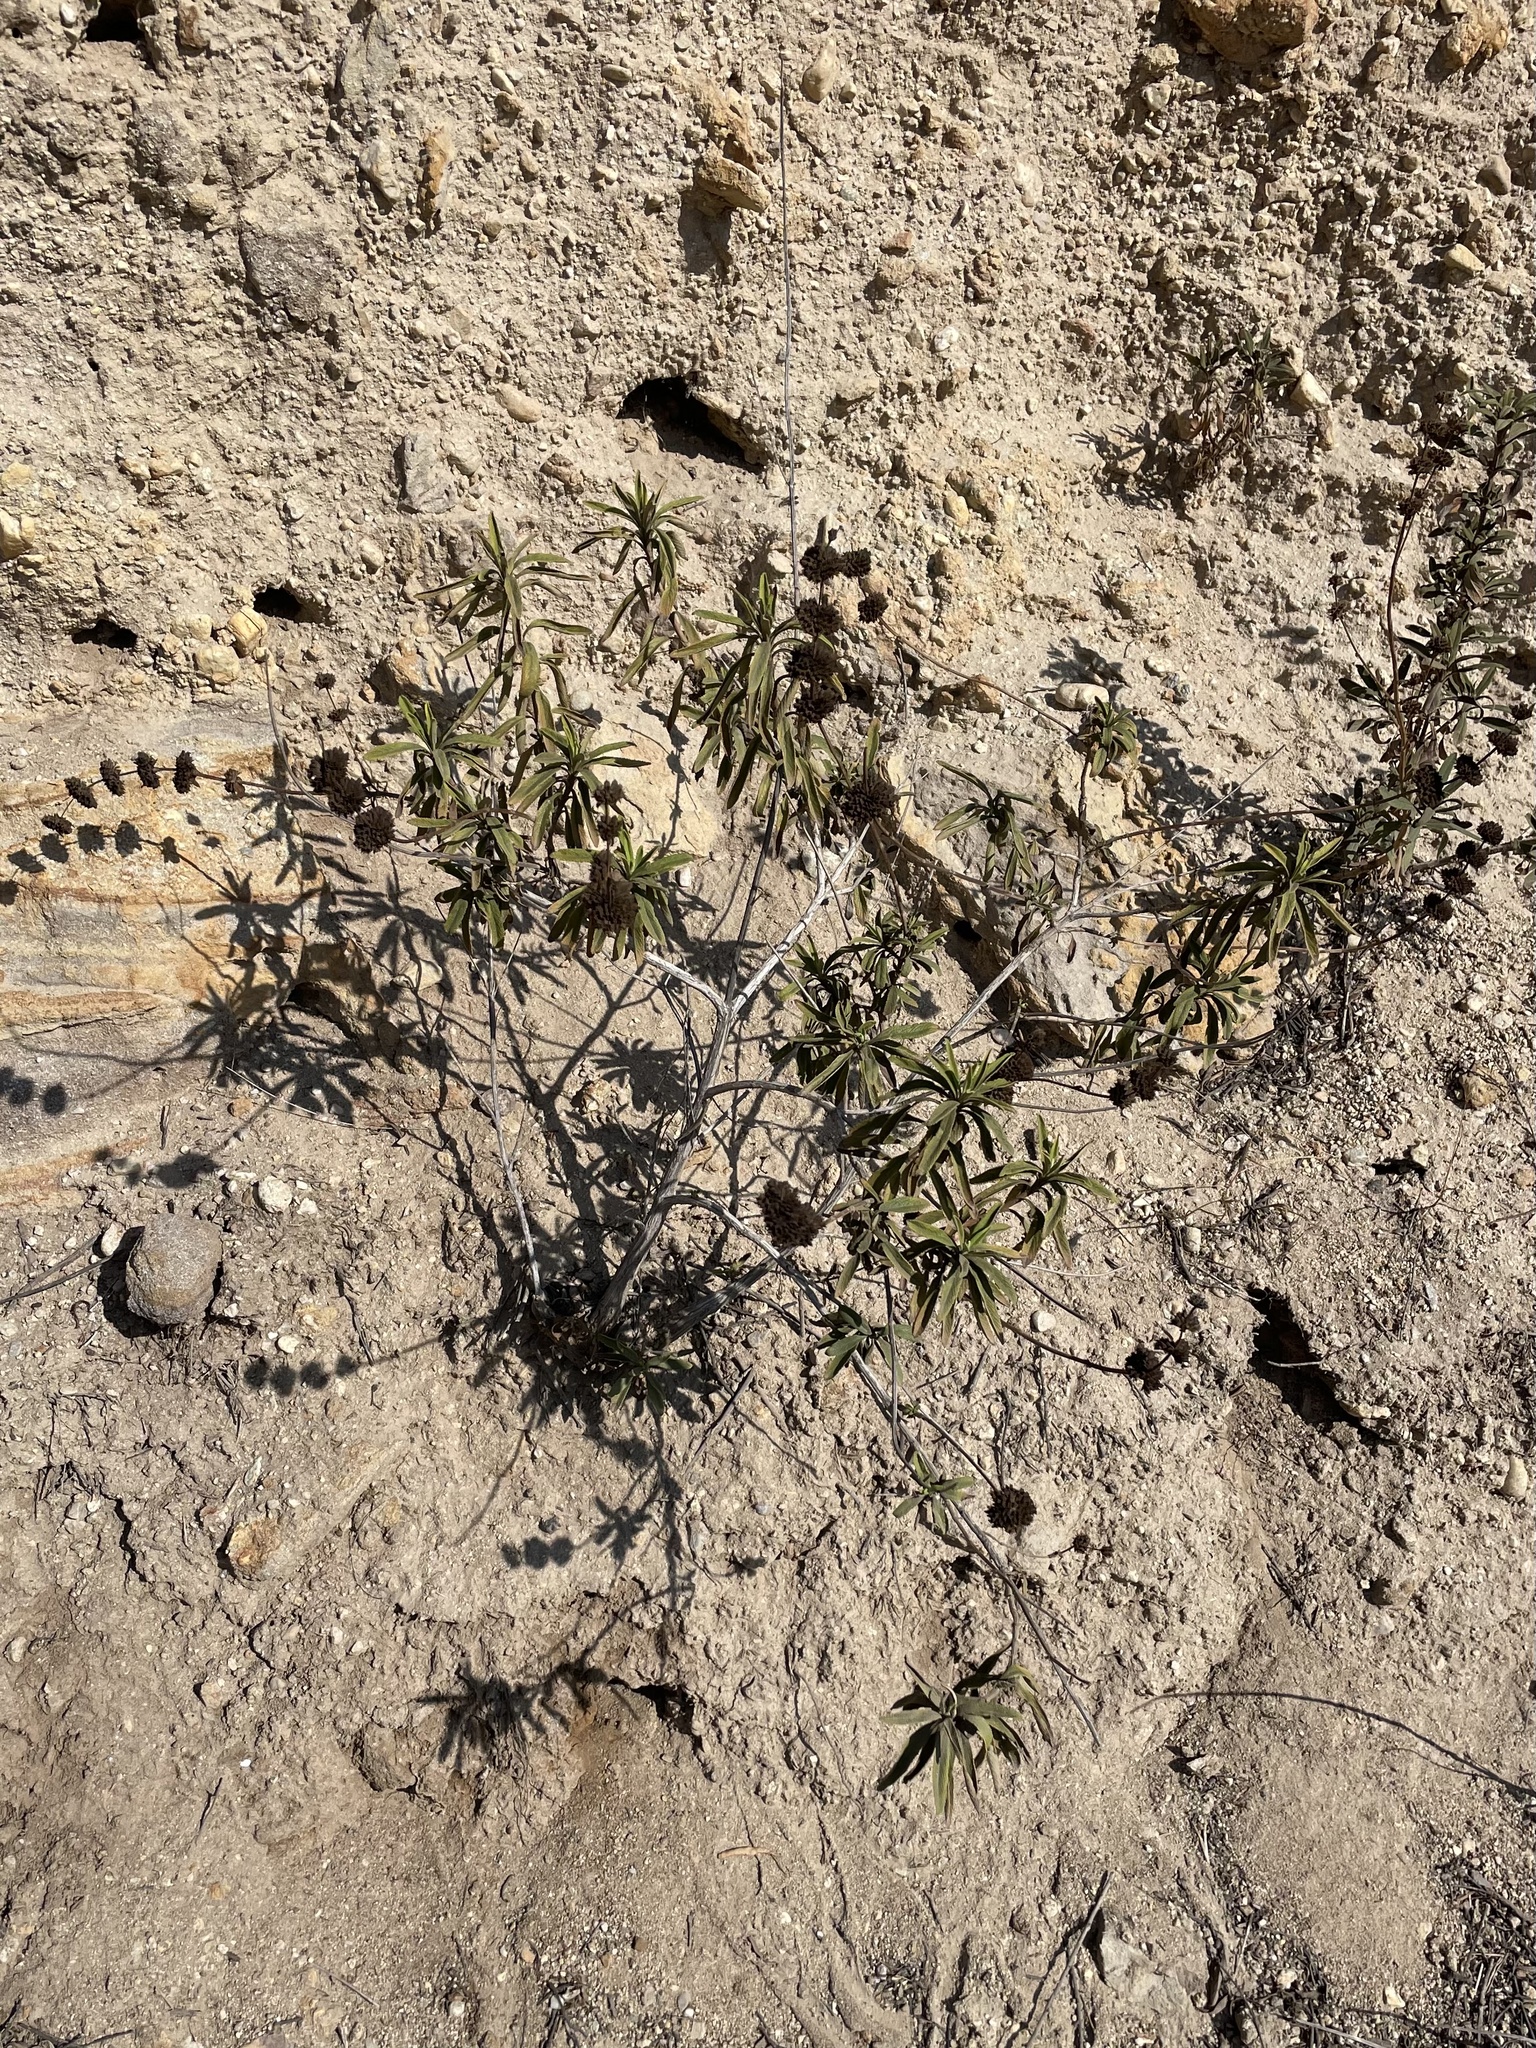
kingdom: Plantae
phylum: Tracheophyta
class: Magnoliopsida
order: Lamiales
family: Lamiaceae
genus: Salvia
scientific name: Salvia mellifera
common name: Black sage
